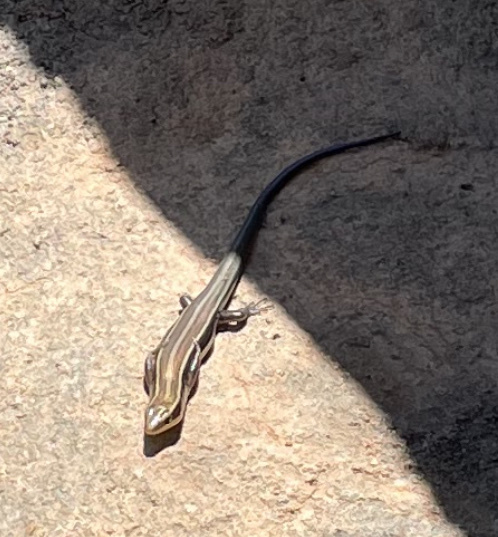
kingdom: Animalia
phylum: Chordata
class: Squamata
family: Scincidae
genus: Plestiodon
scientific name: Plestiodon fasciatus
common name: Five-lined skink
